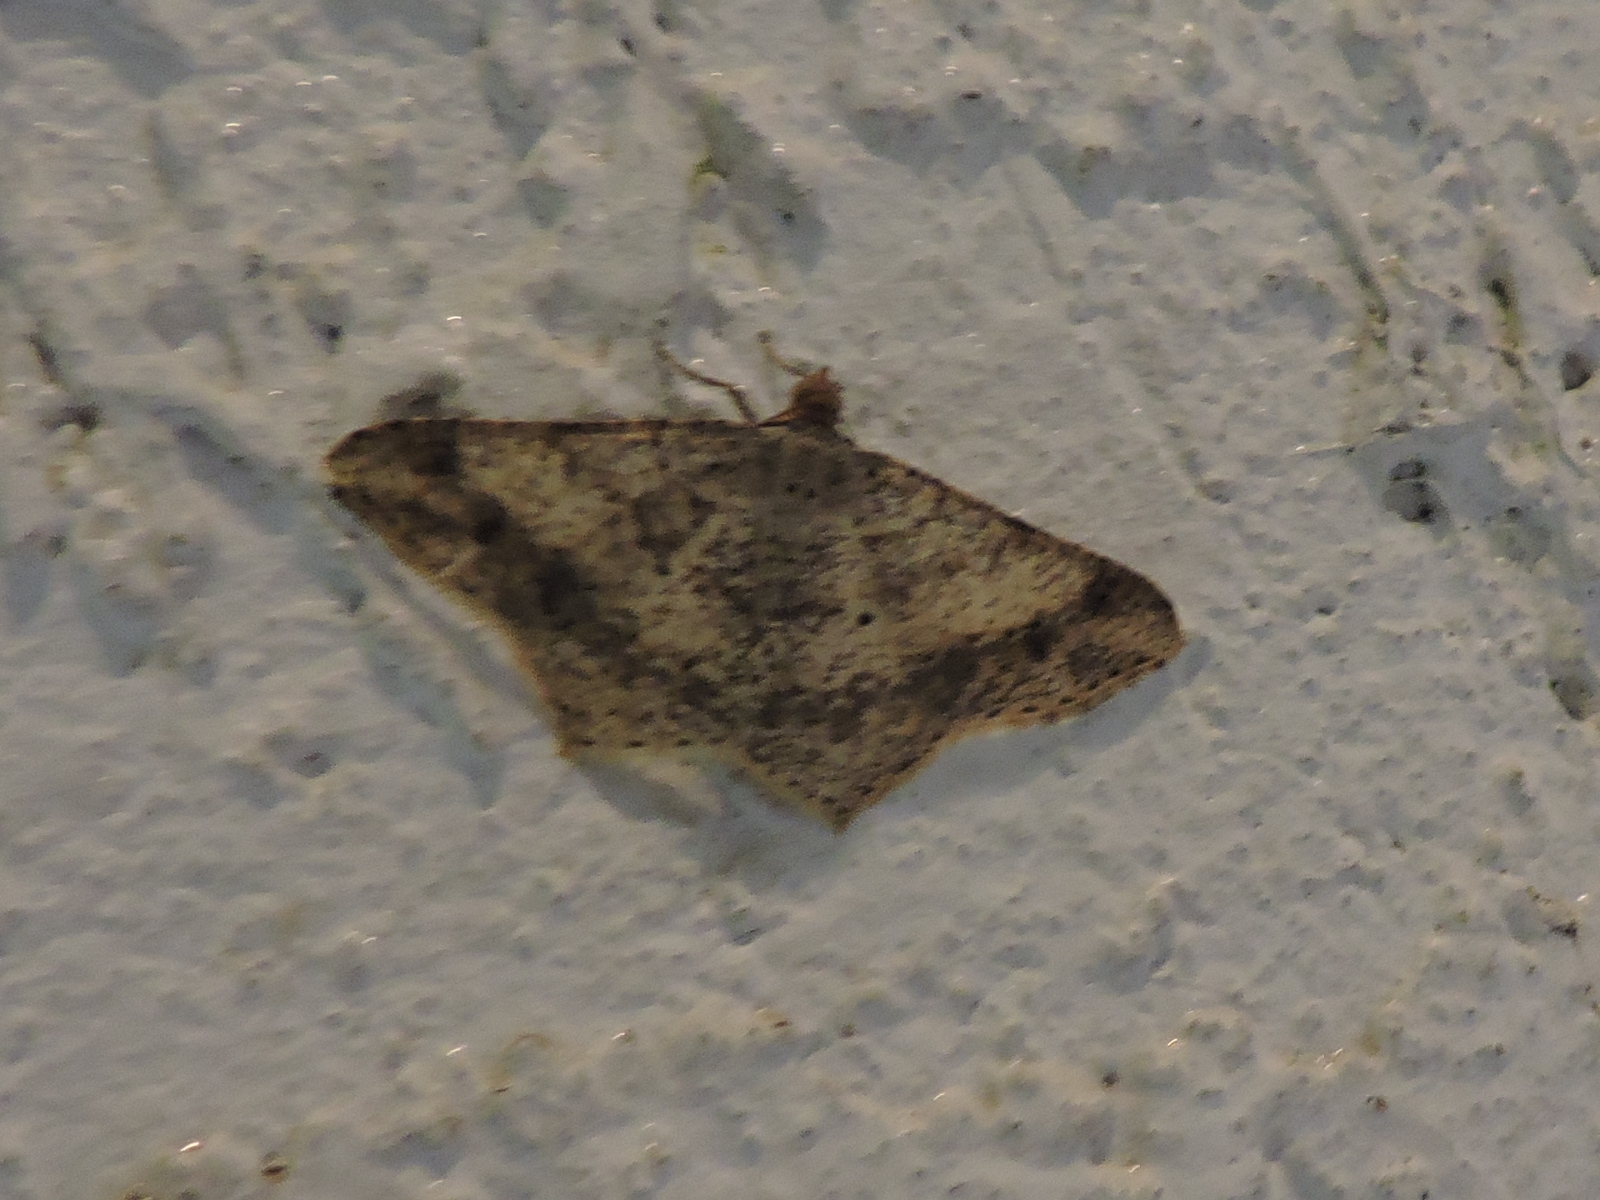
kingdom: Animalia
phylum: Arthropoda
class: Insecta
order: Lepidoptera
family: Geometridae
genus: Macaria
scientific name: Macaria abydata
